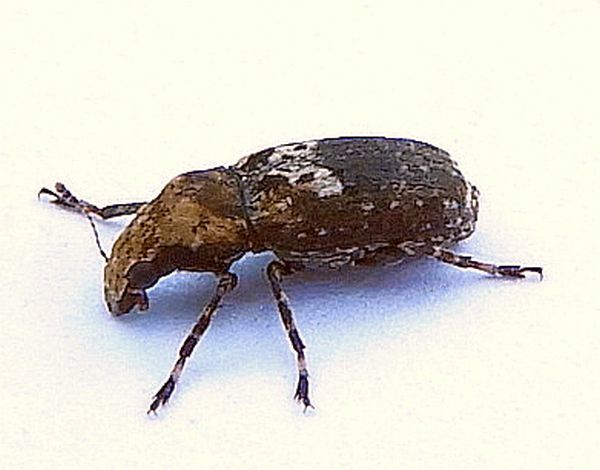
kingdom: Animalia
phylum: Arthropoda
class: Insecta
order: Coleoptera
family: Anthribidae
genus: Euparius
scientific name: Euparius paganus
